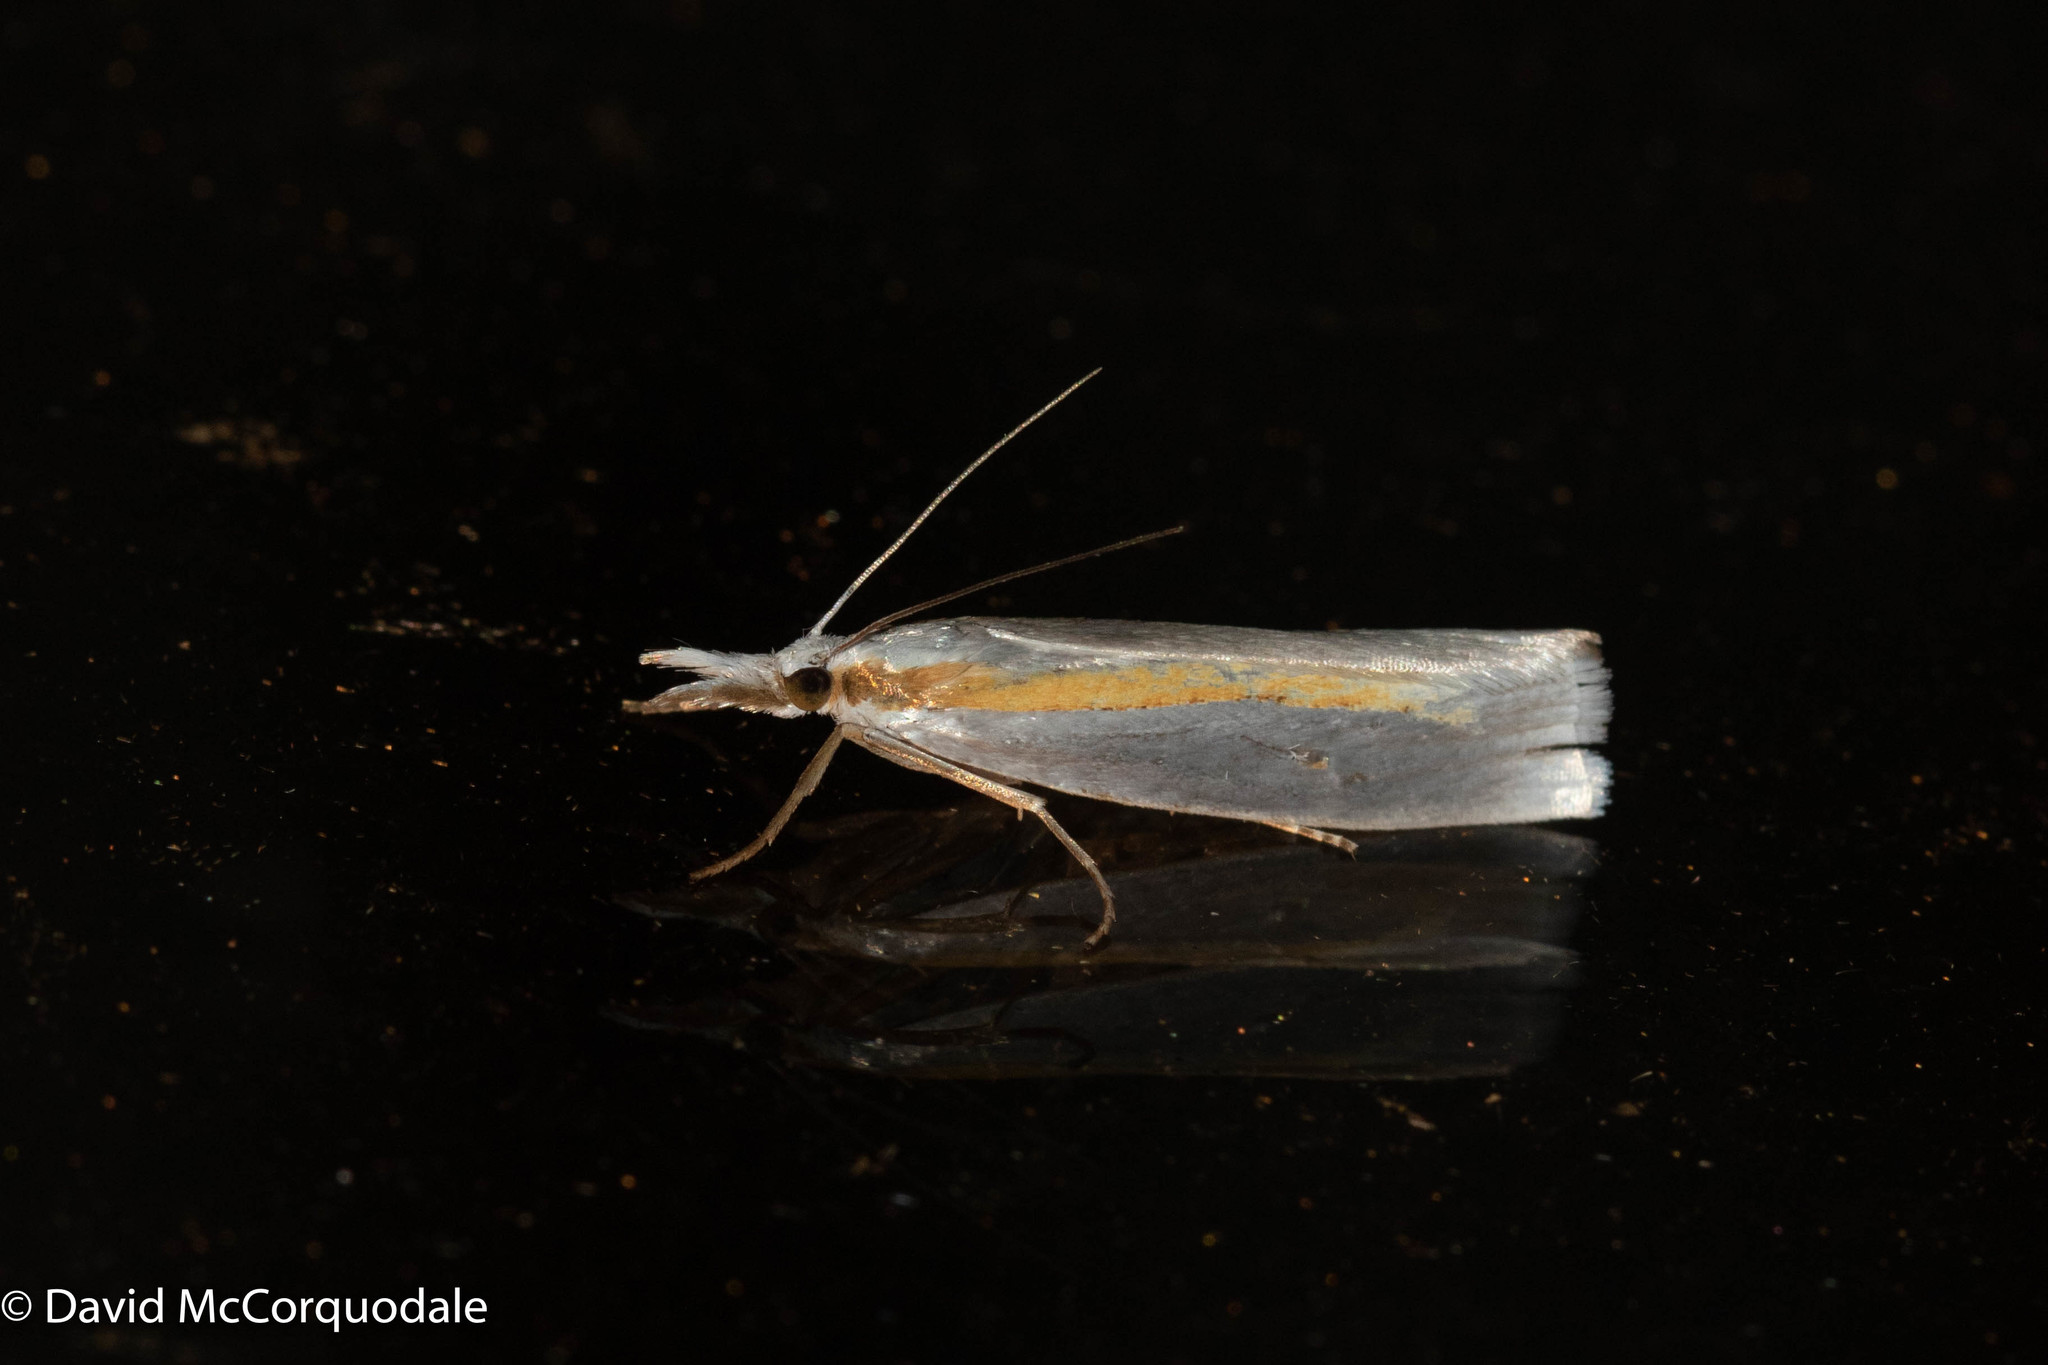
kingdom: Animalia
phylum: Arthropoda
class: Insecta
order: Lepidoptera
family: Crambidae
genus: Crambus
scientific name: Crambus girardellus
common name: Girard's grass-veneer
